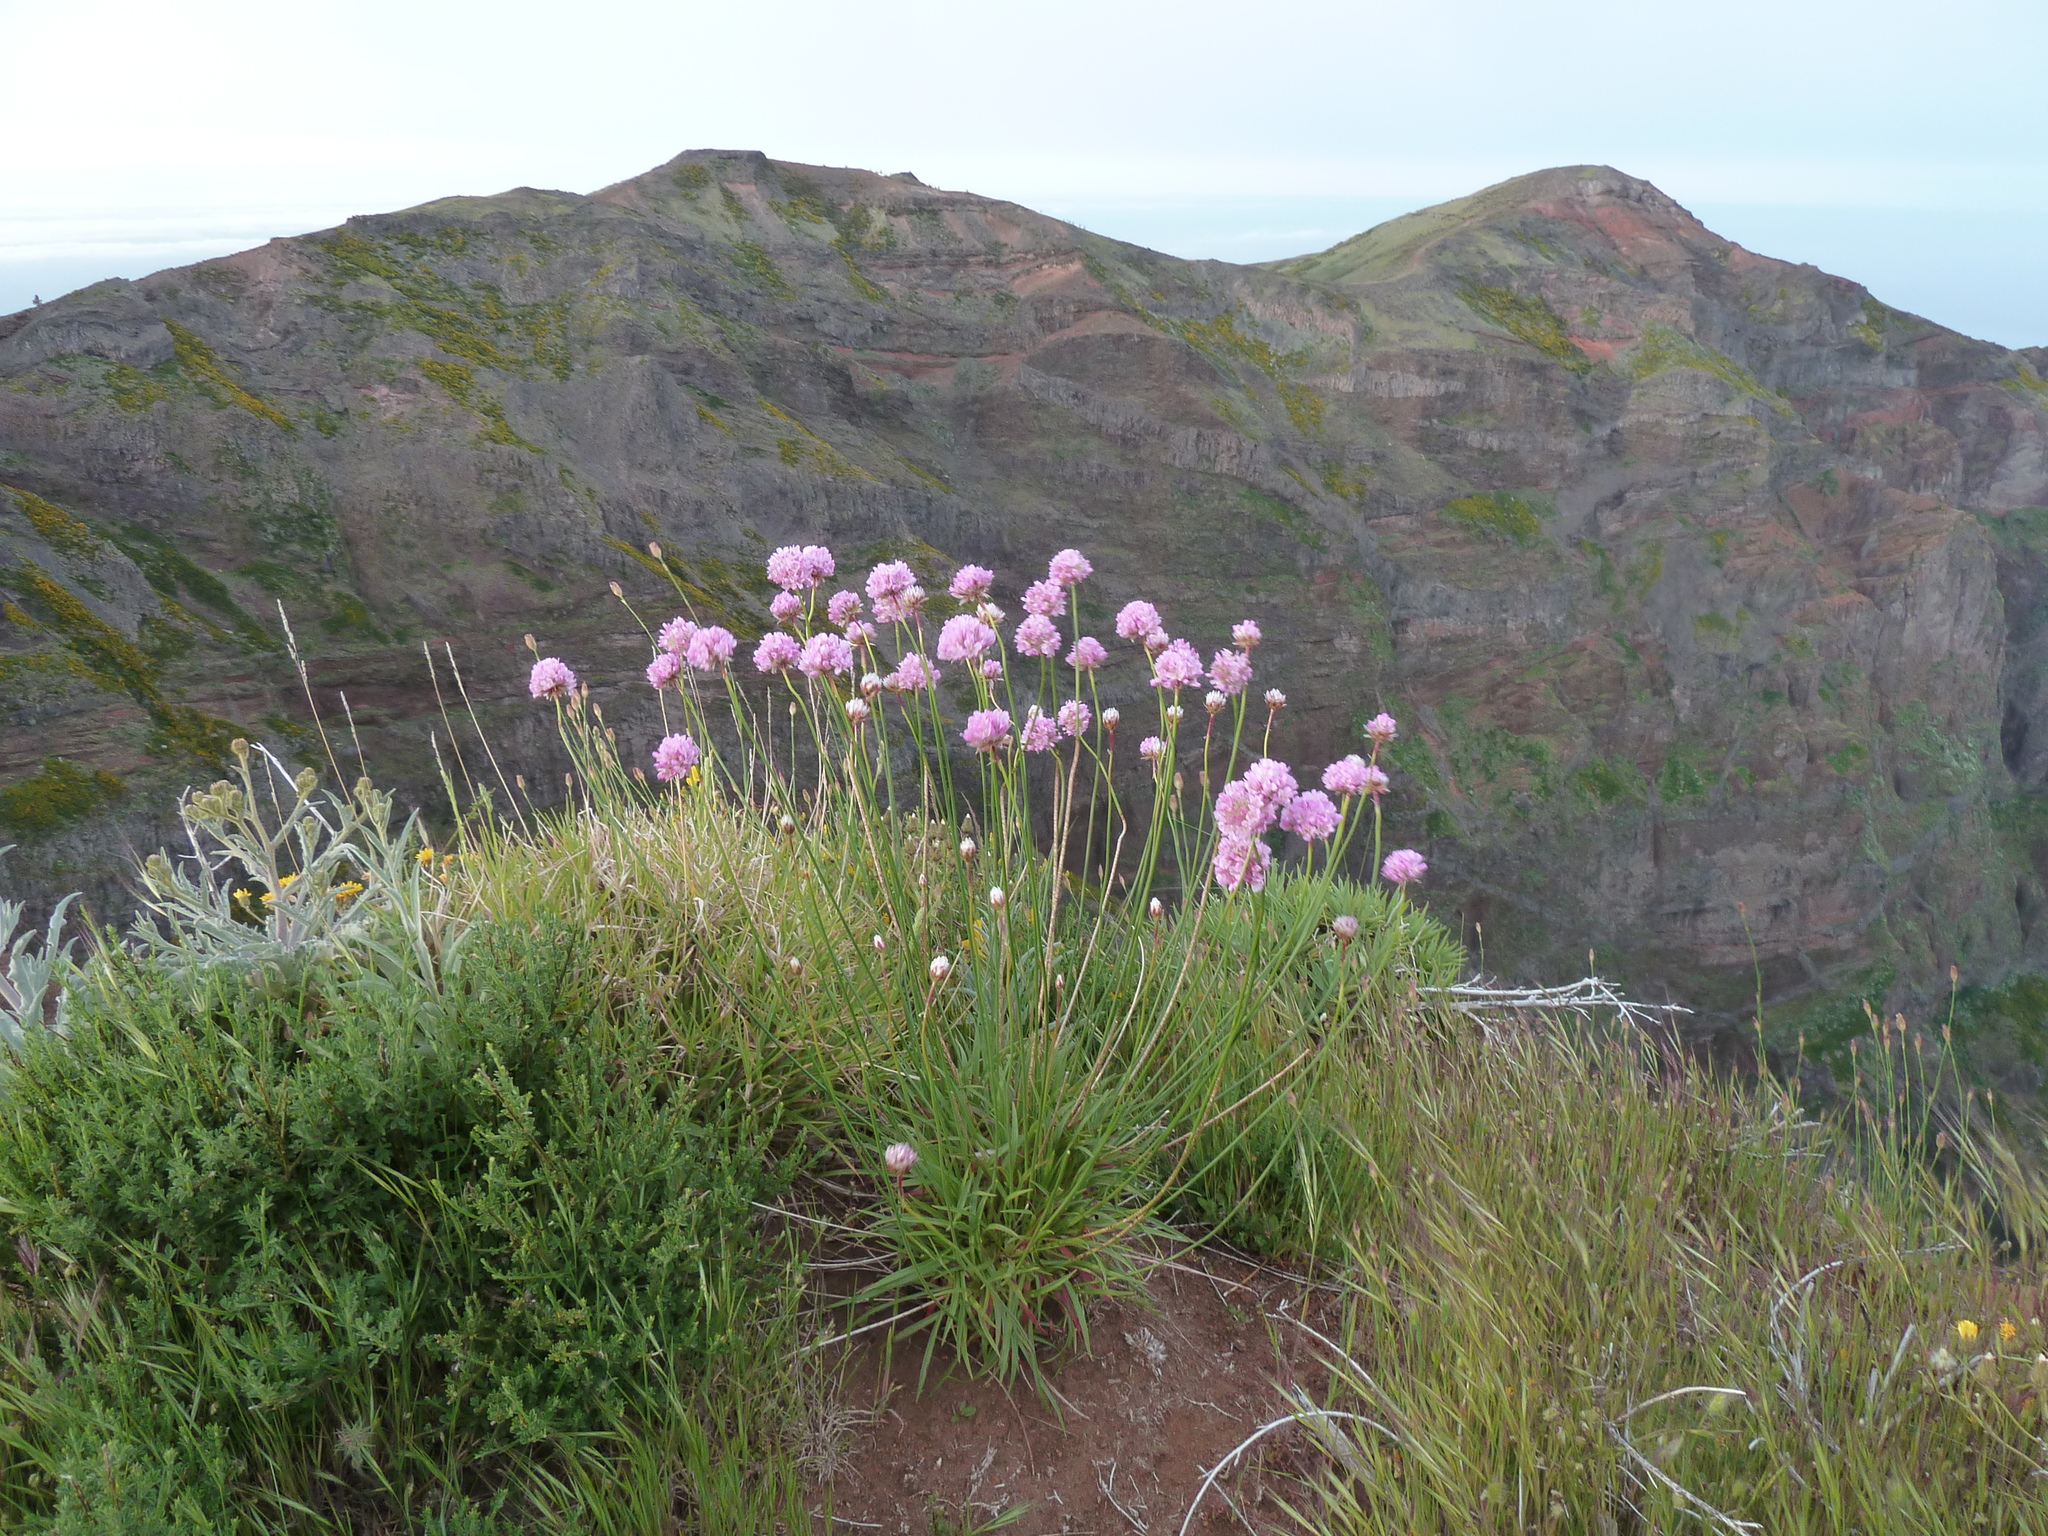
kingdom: Plantae
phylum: Tracheophyta
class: Magnoliopsida
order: Caryophyllales
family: Plumbaginaceae
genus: Armeria
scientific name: Armeria maderensis
